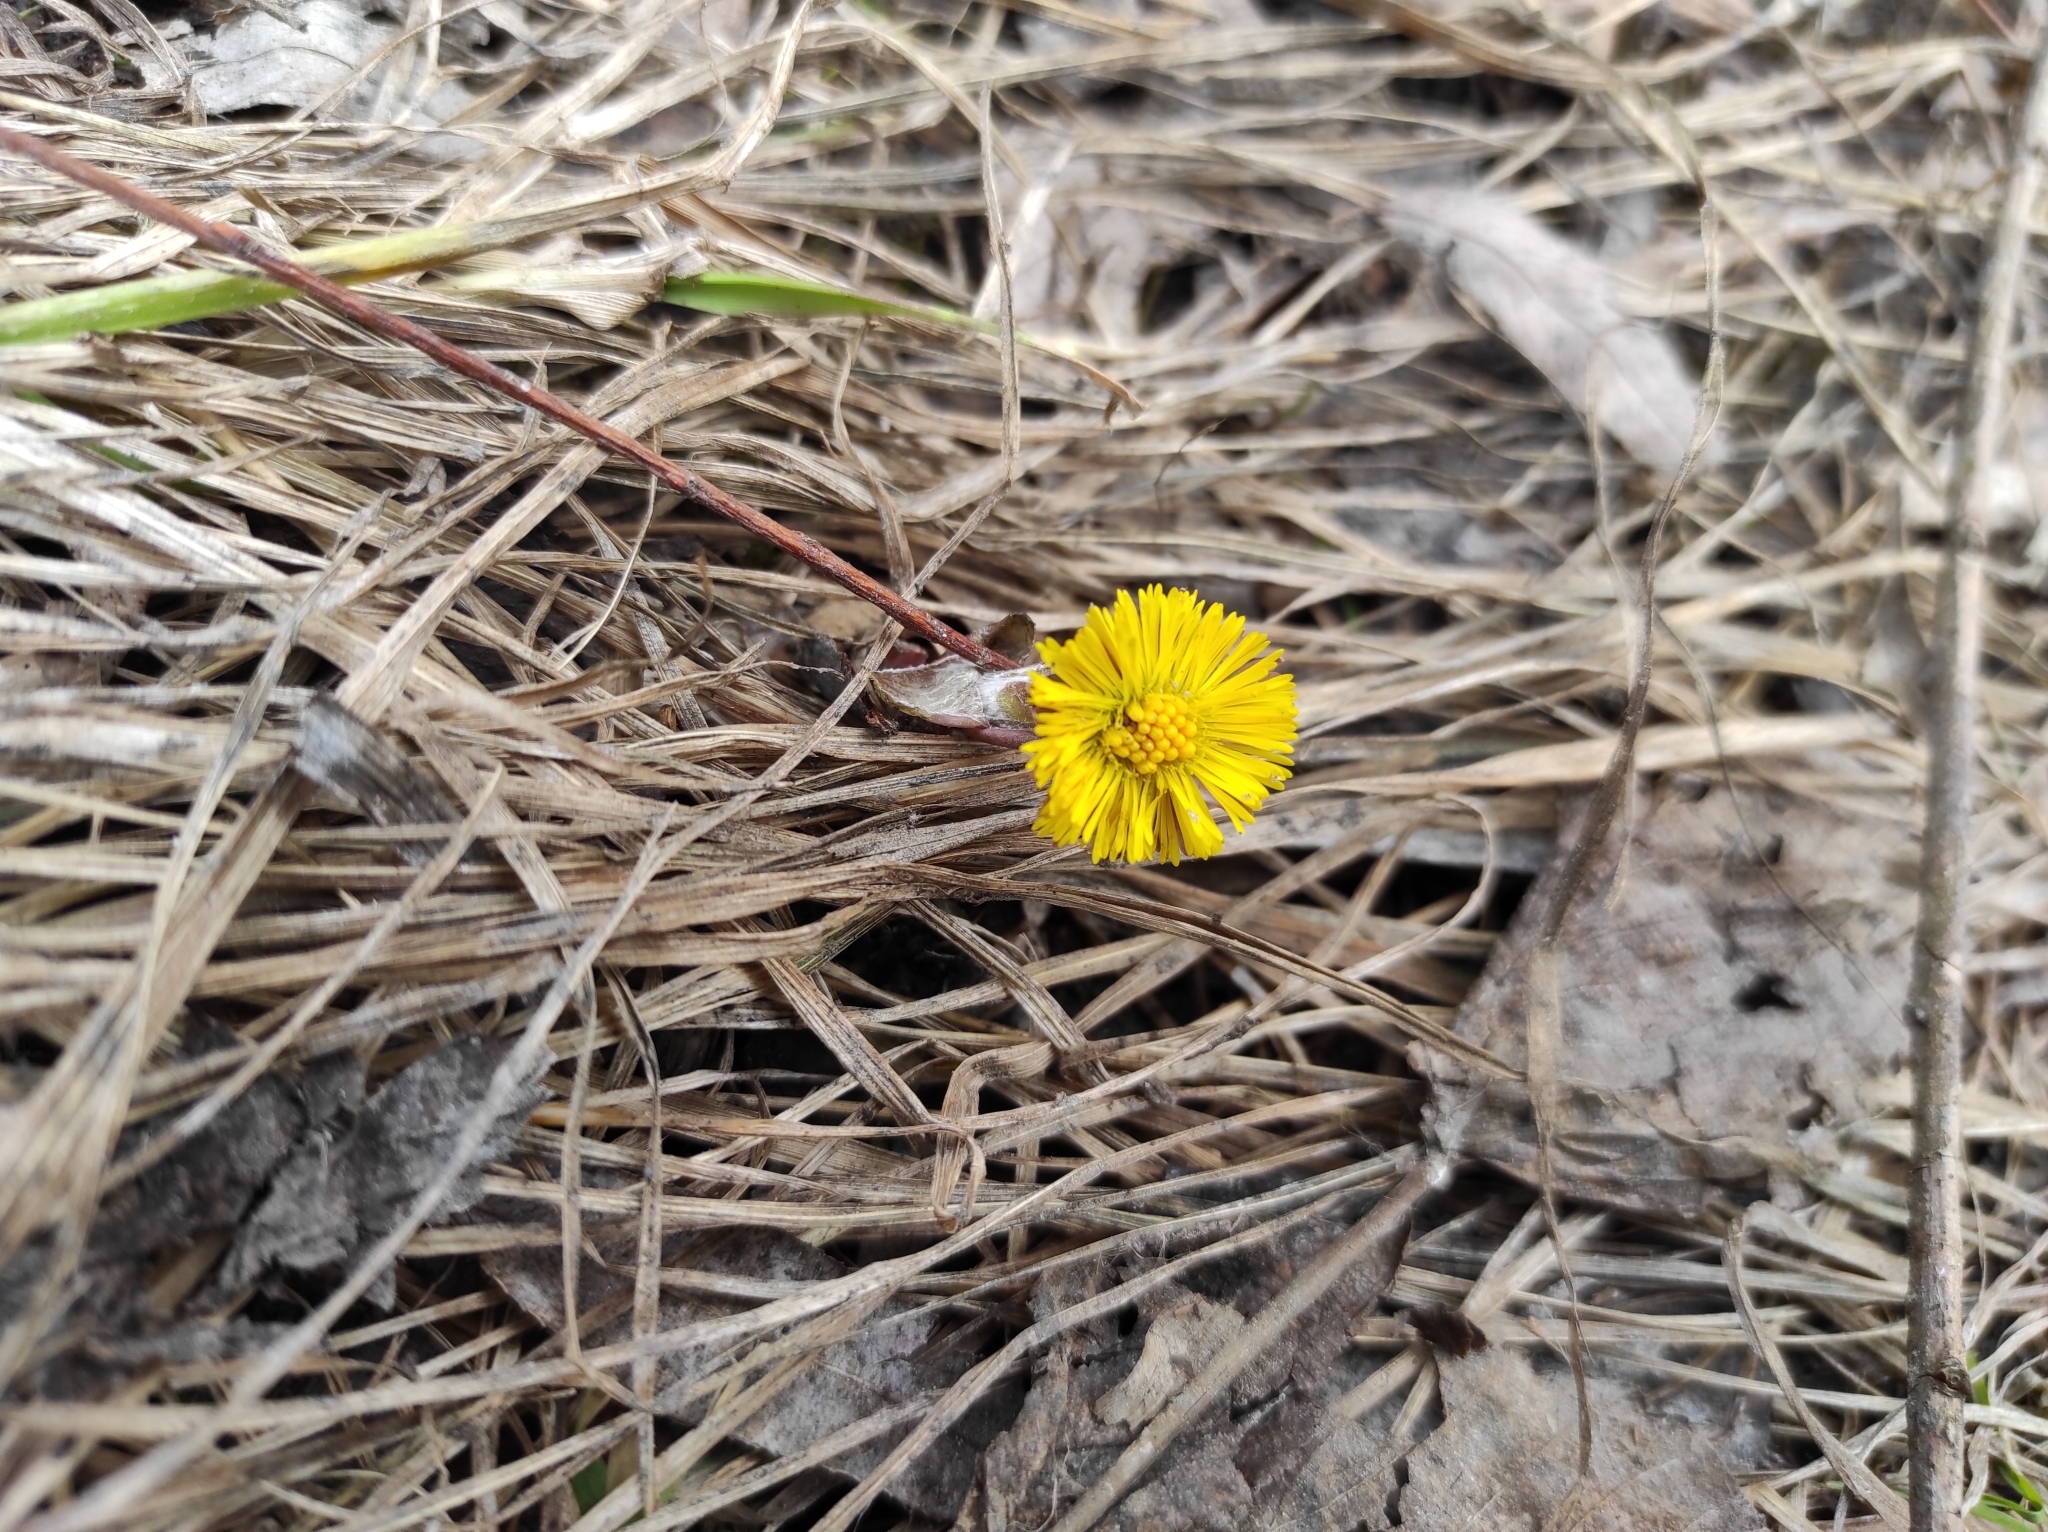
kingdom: Plantae
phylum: Tracheophyta
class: Magnoliopsida
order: Asterales
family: Asteraceae
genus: Tussilago
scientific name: Tussilago farfara
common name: Coltsfoot
